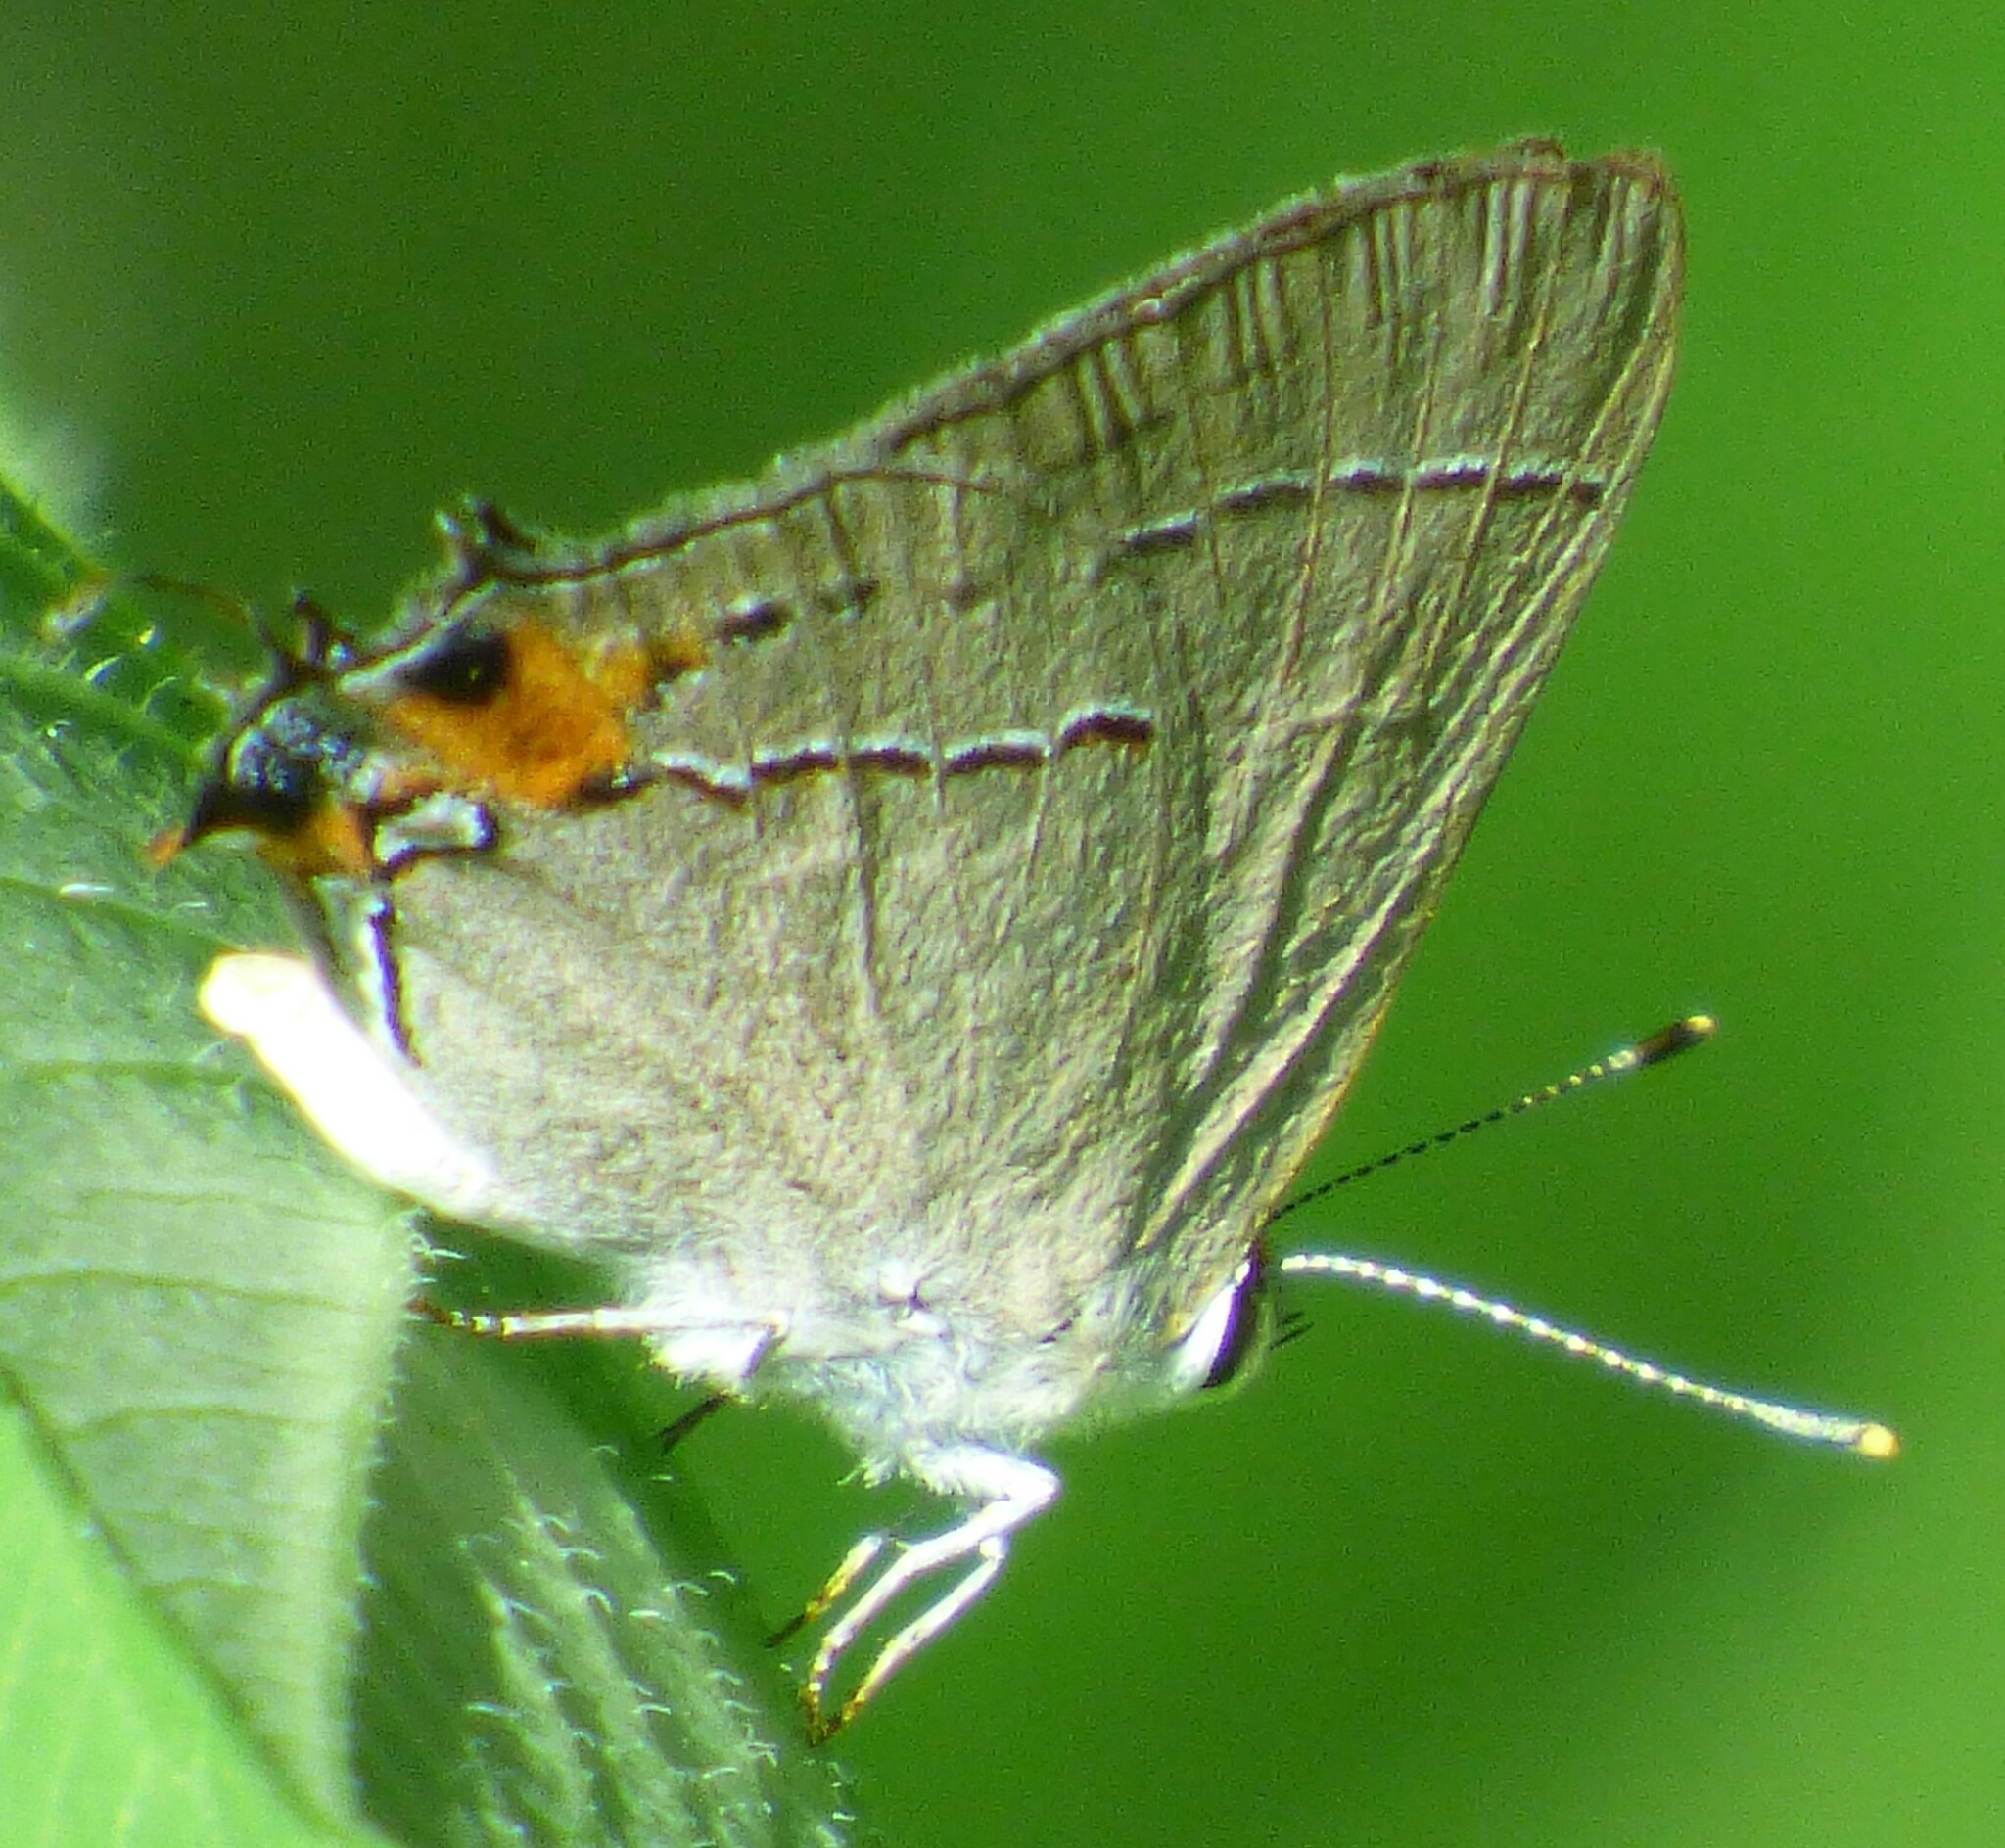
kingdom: Animalia
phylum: Arthropoda
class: Insecta
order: Lepidoptera
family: Lycaenidae
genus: Strymon
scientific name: Strymon melinus
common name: Gray hairstreak
